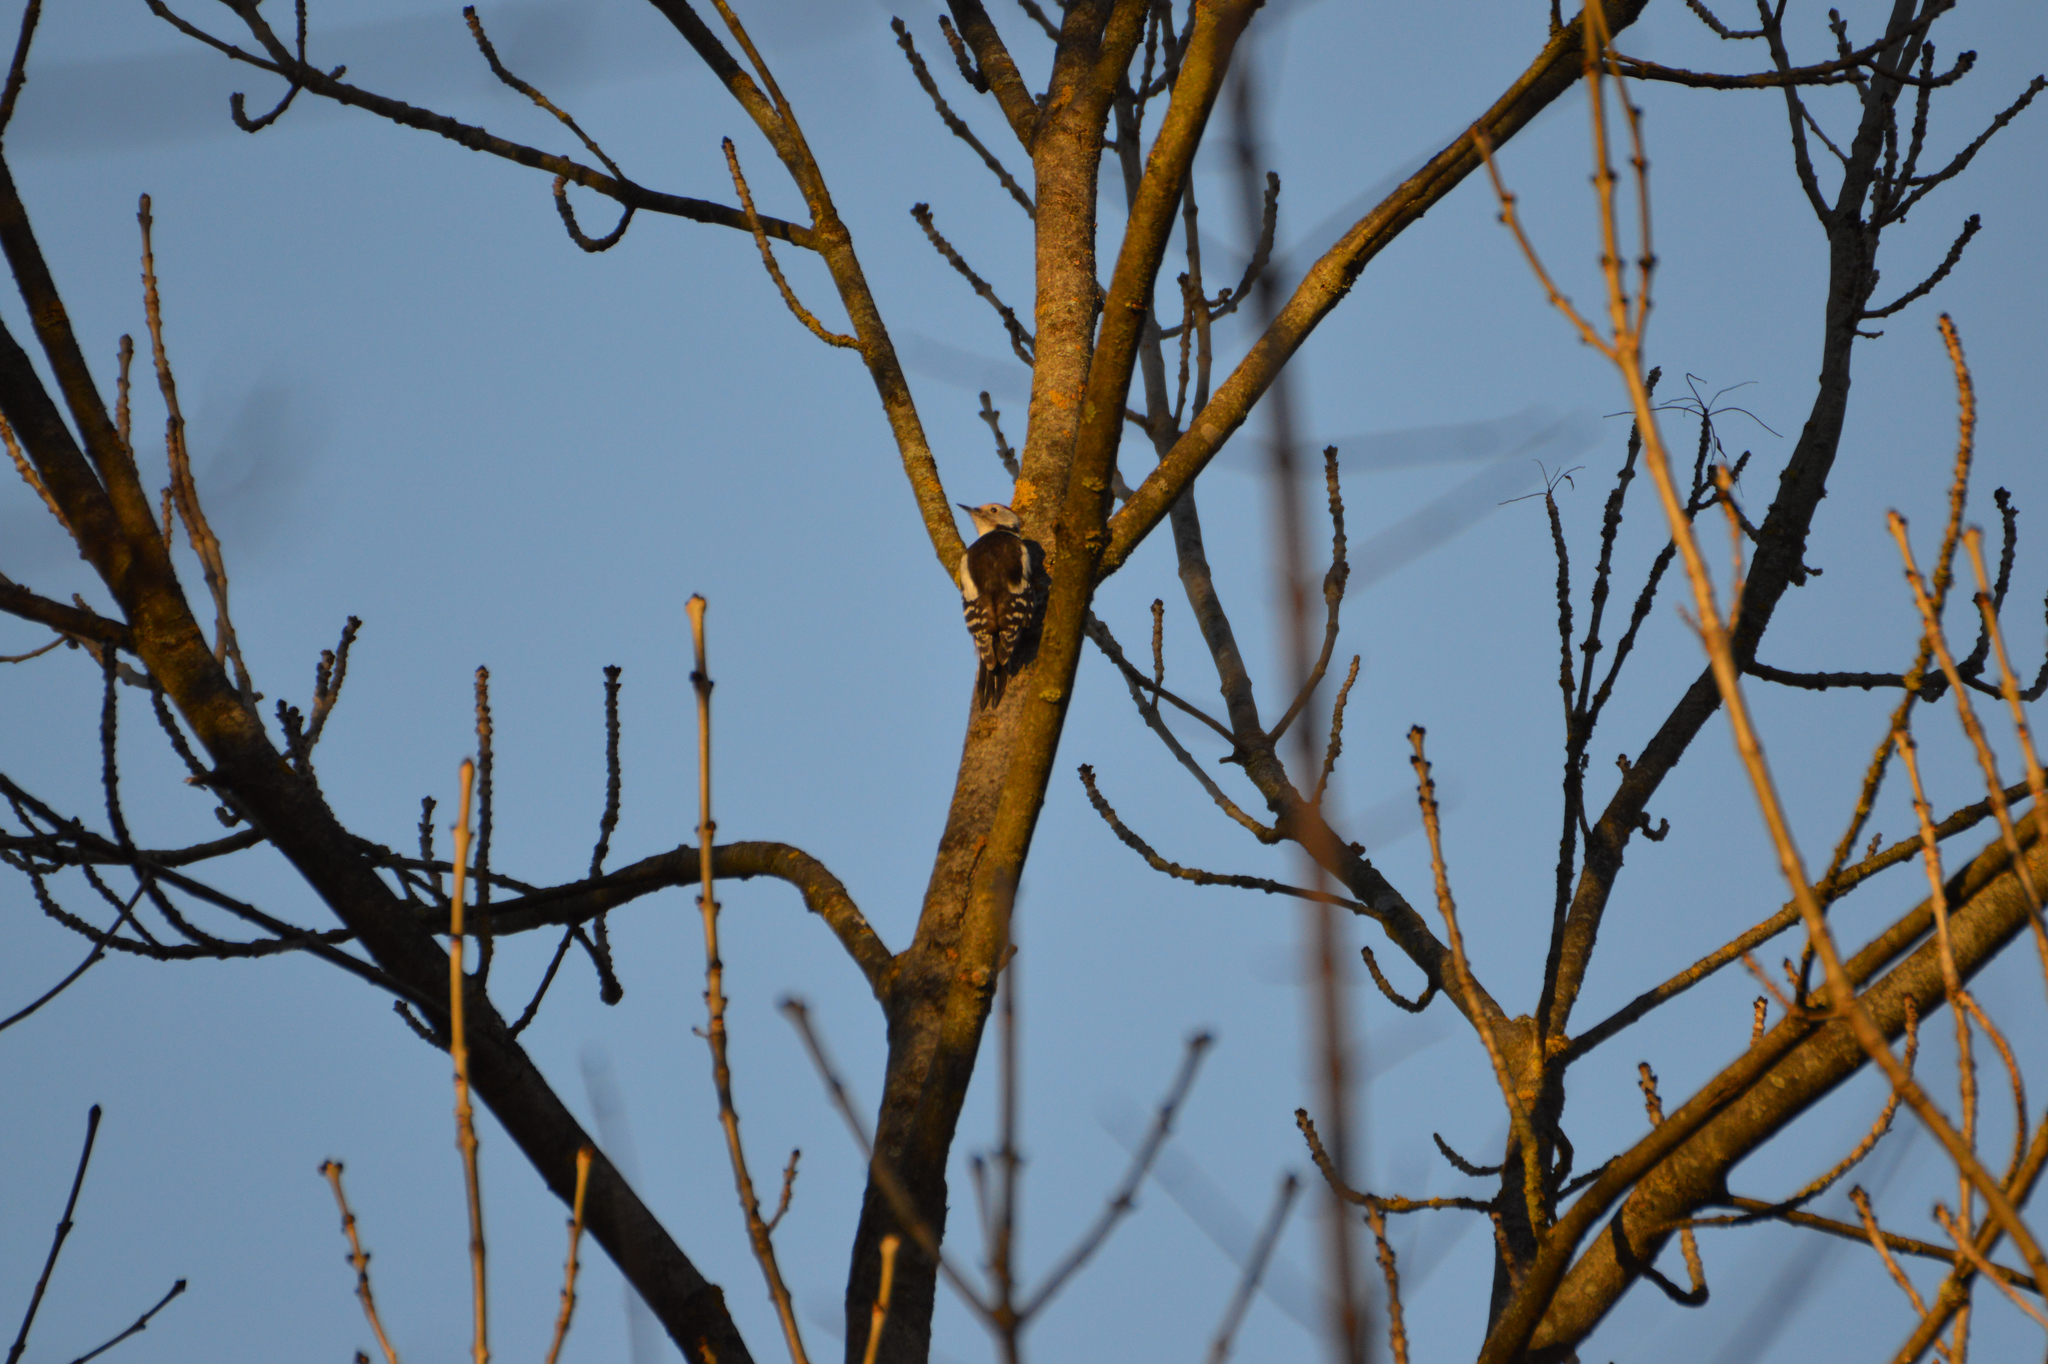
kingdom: Animalia
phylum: Chordata
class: Aves
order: Piciformes
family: Picidae
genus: Dendrocoptes
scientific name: Dendrocoptes medius
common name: Middle spotted woodpecker
